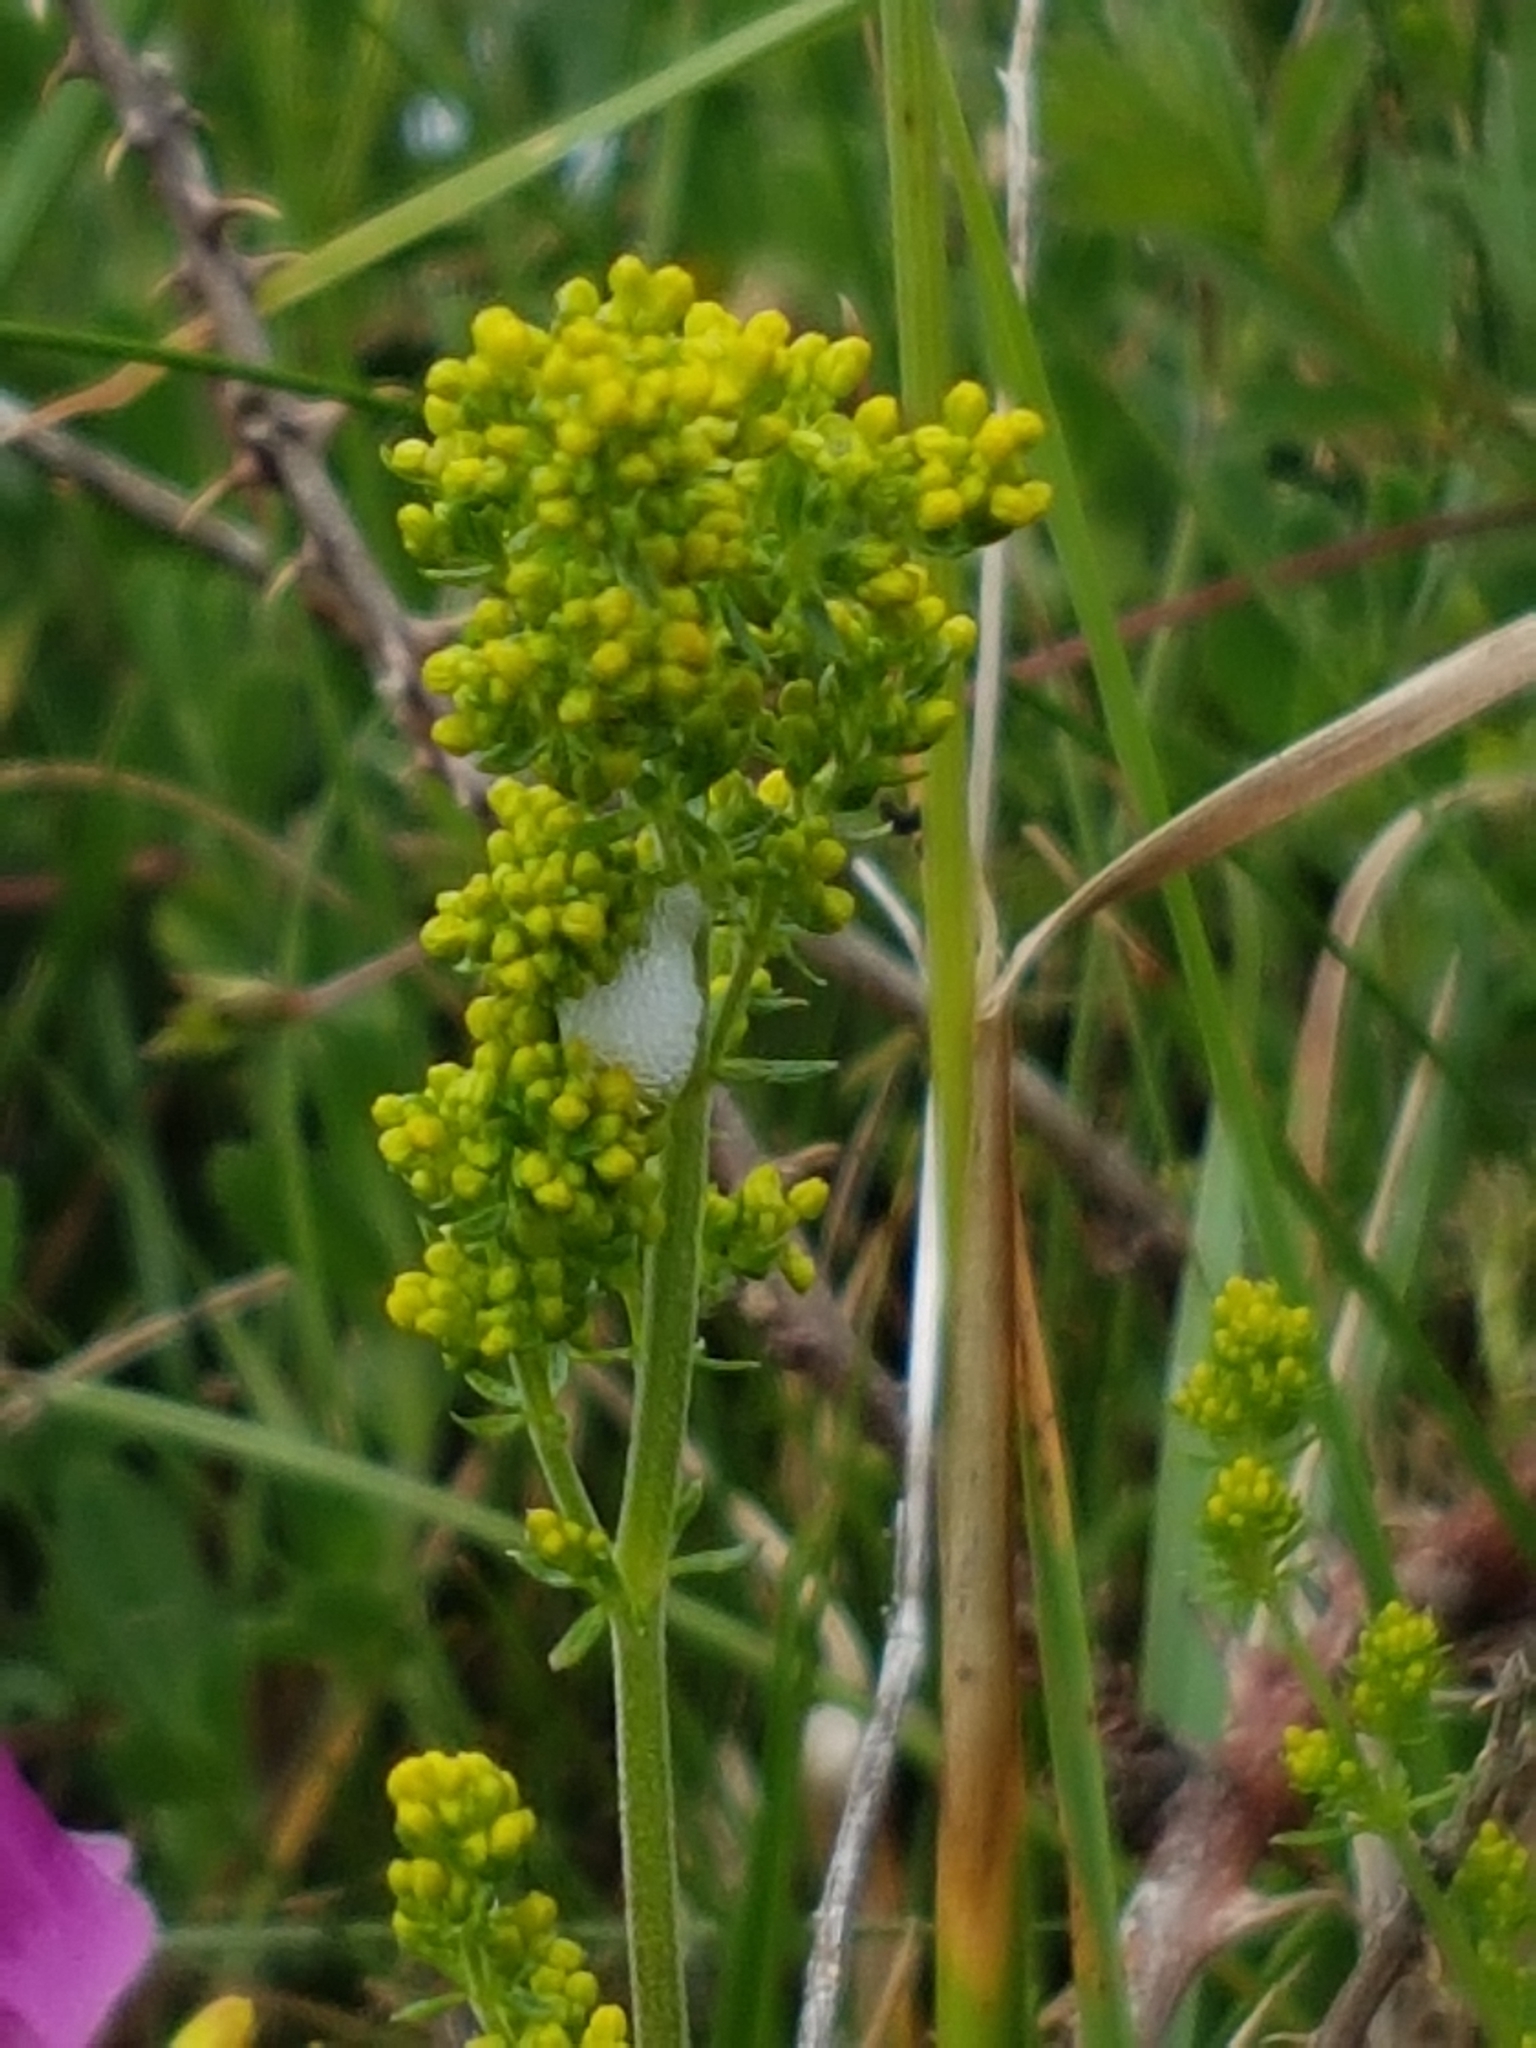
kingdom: Plantae
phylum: Tracheophyta
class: Magnoliopsida
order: Gentianales
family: Rubiaceae
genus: Galium
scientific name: Galium verum
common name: Lady's bedstraw
